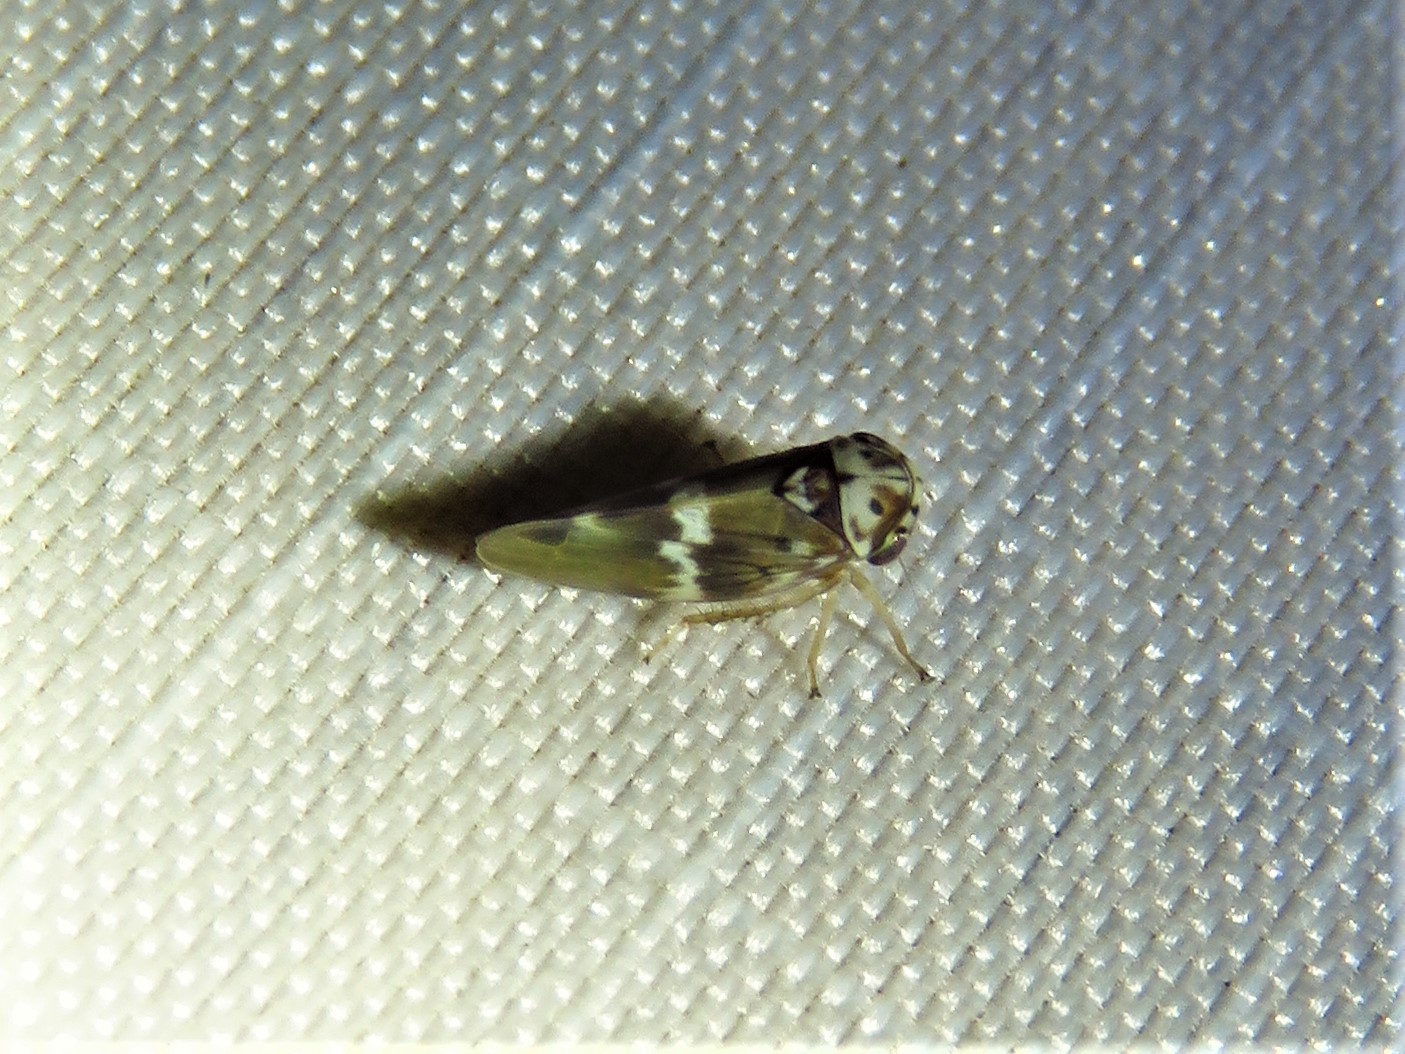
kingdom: Animalia
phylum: Arthropoda
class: Insecta
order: Hemiptera
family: Cicadellidae
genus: Agalliopsis
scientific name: Agalliopsis cervina
